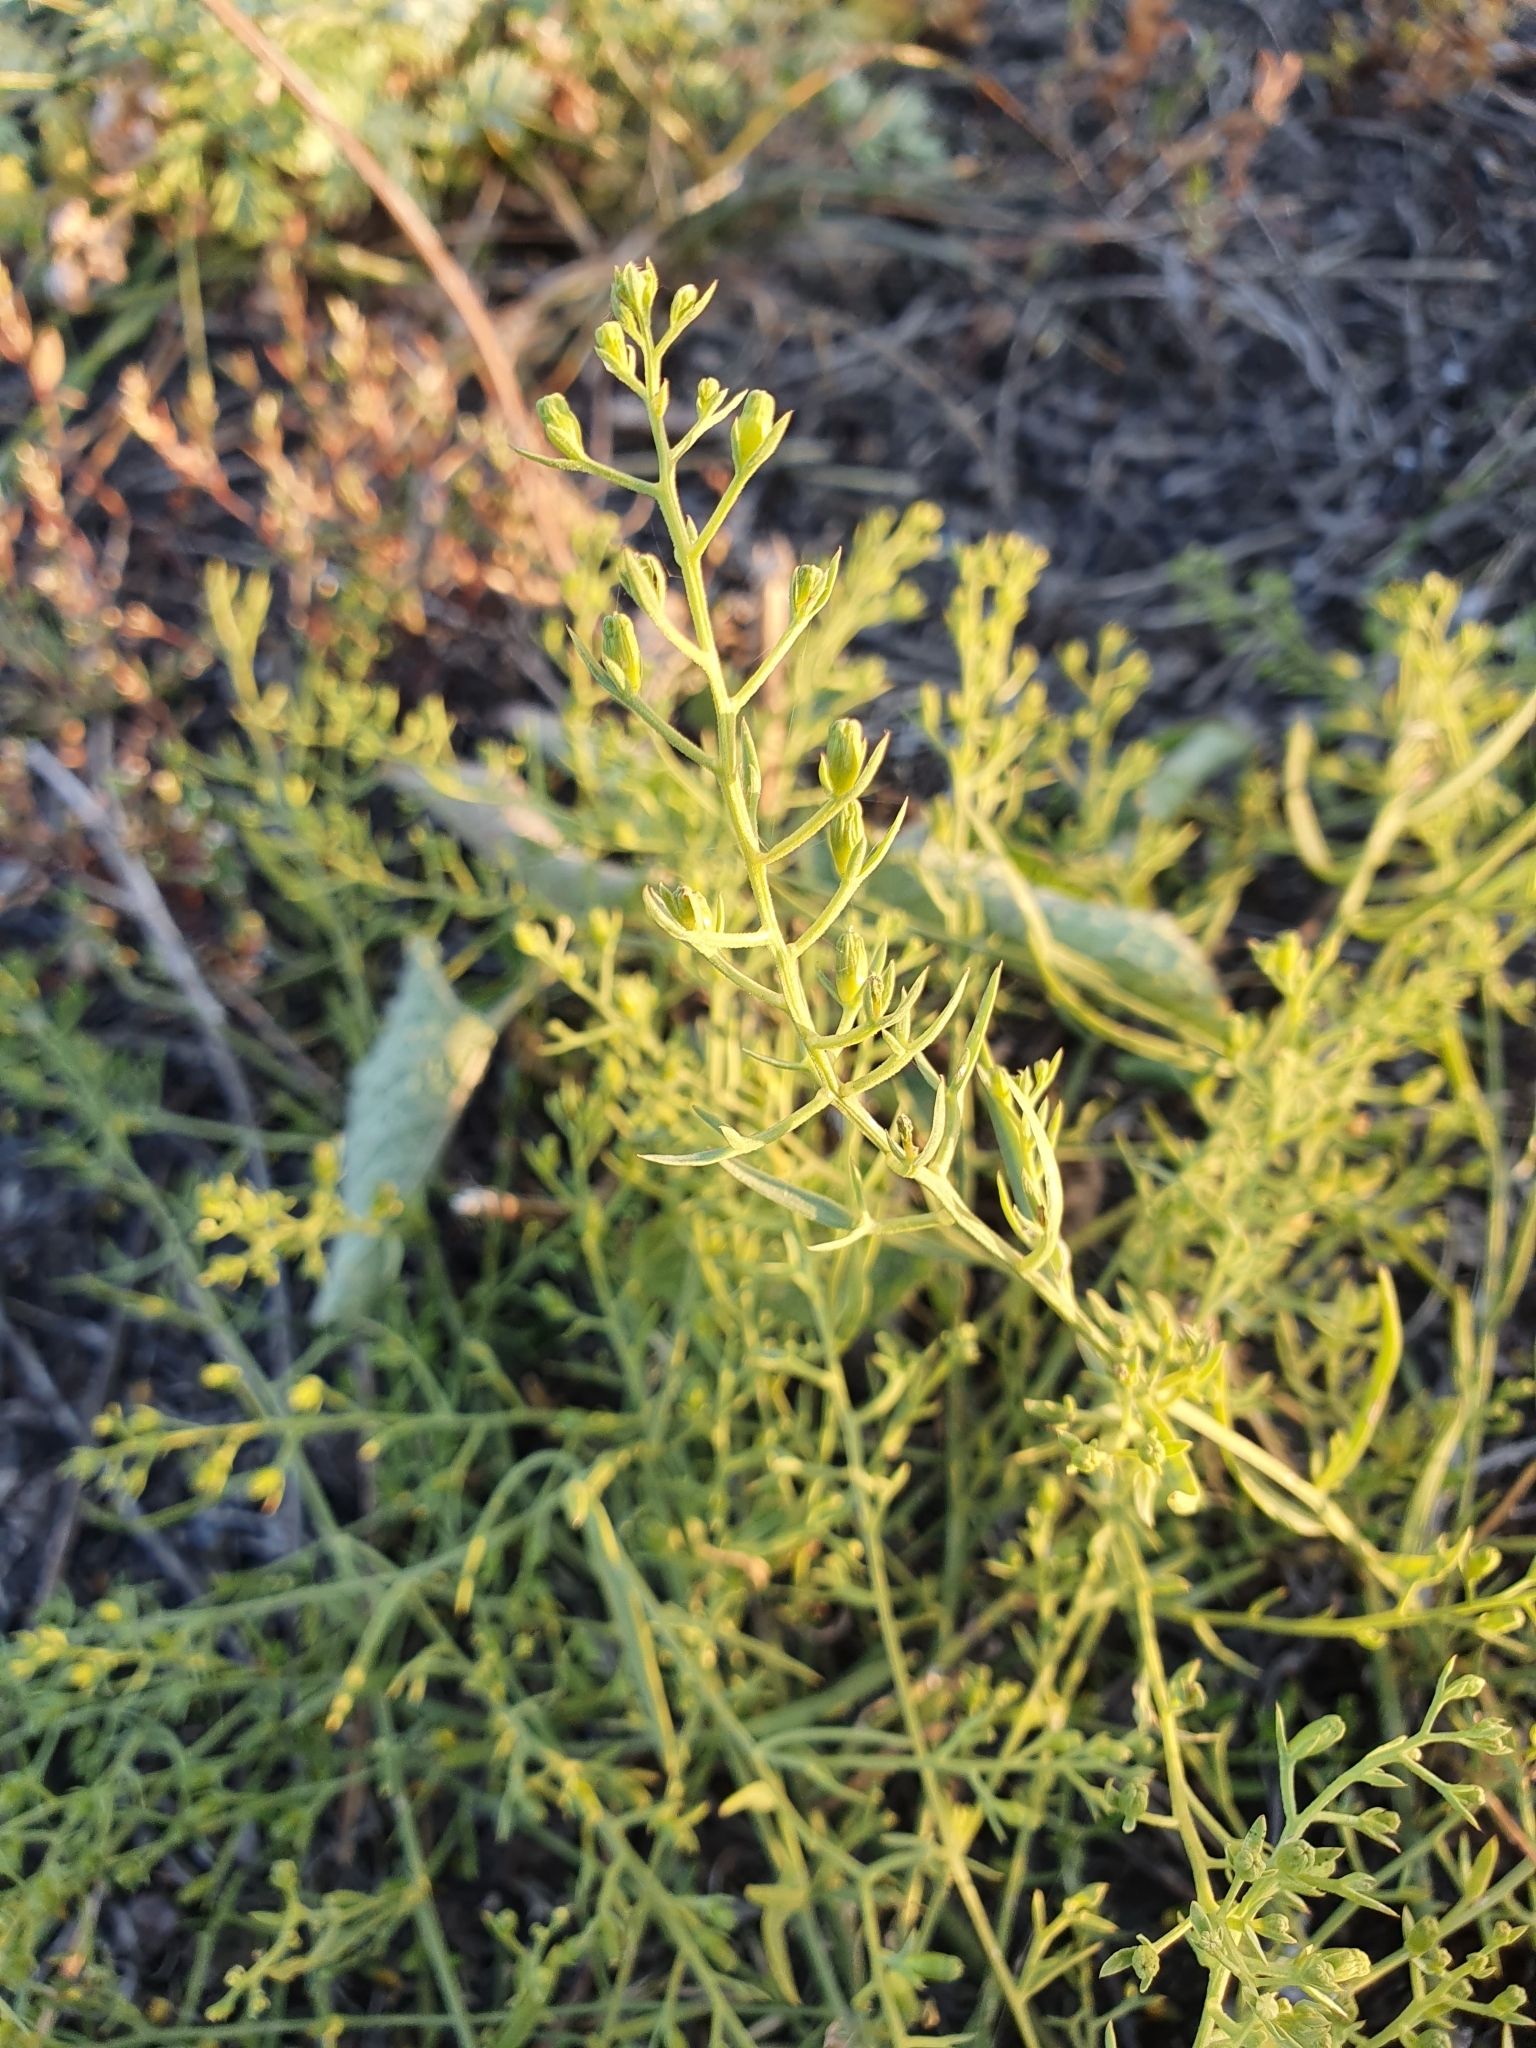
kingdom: Plantae
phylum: Tracheophyta
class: Magnoliopsida
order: Santalales
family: Thesiaceae
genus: Thesium
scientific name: Thesium ramosum
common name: Field thesium
